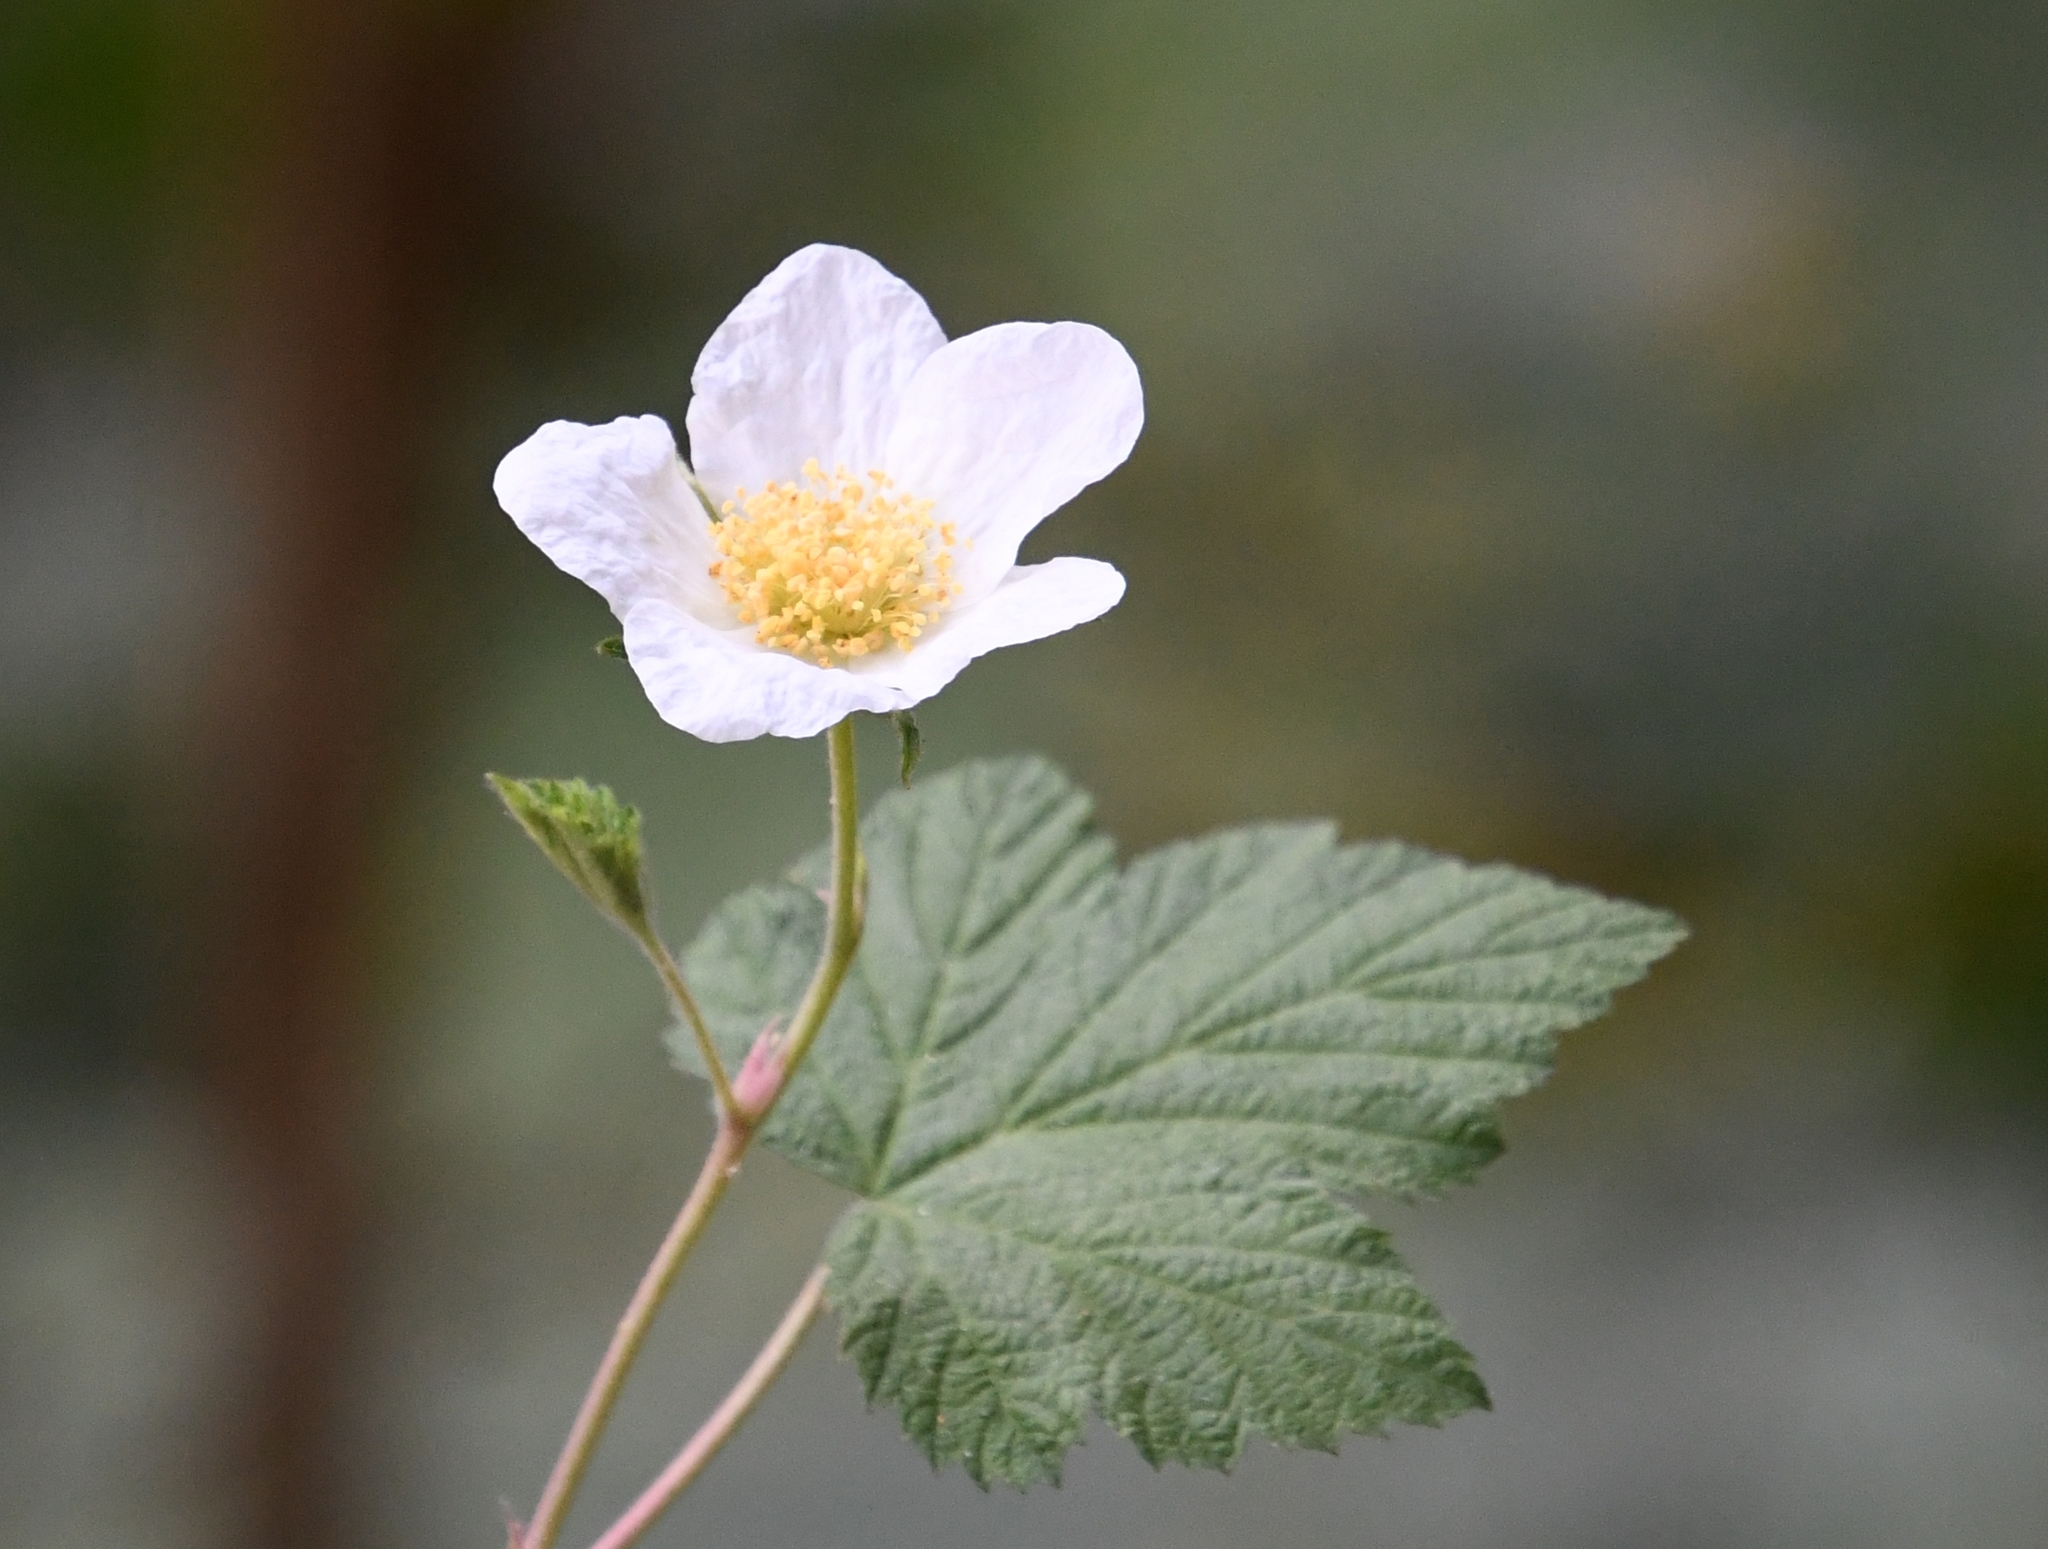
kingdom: Plantae
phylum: Tracheophyta
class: Magnoliopsida
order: Rosales
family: Rosaceae
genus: Rubus
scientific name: Rubus neomexicanus
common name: New mexico raspberry
